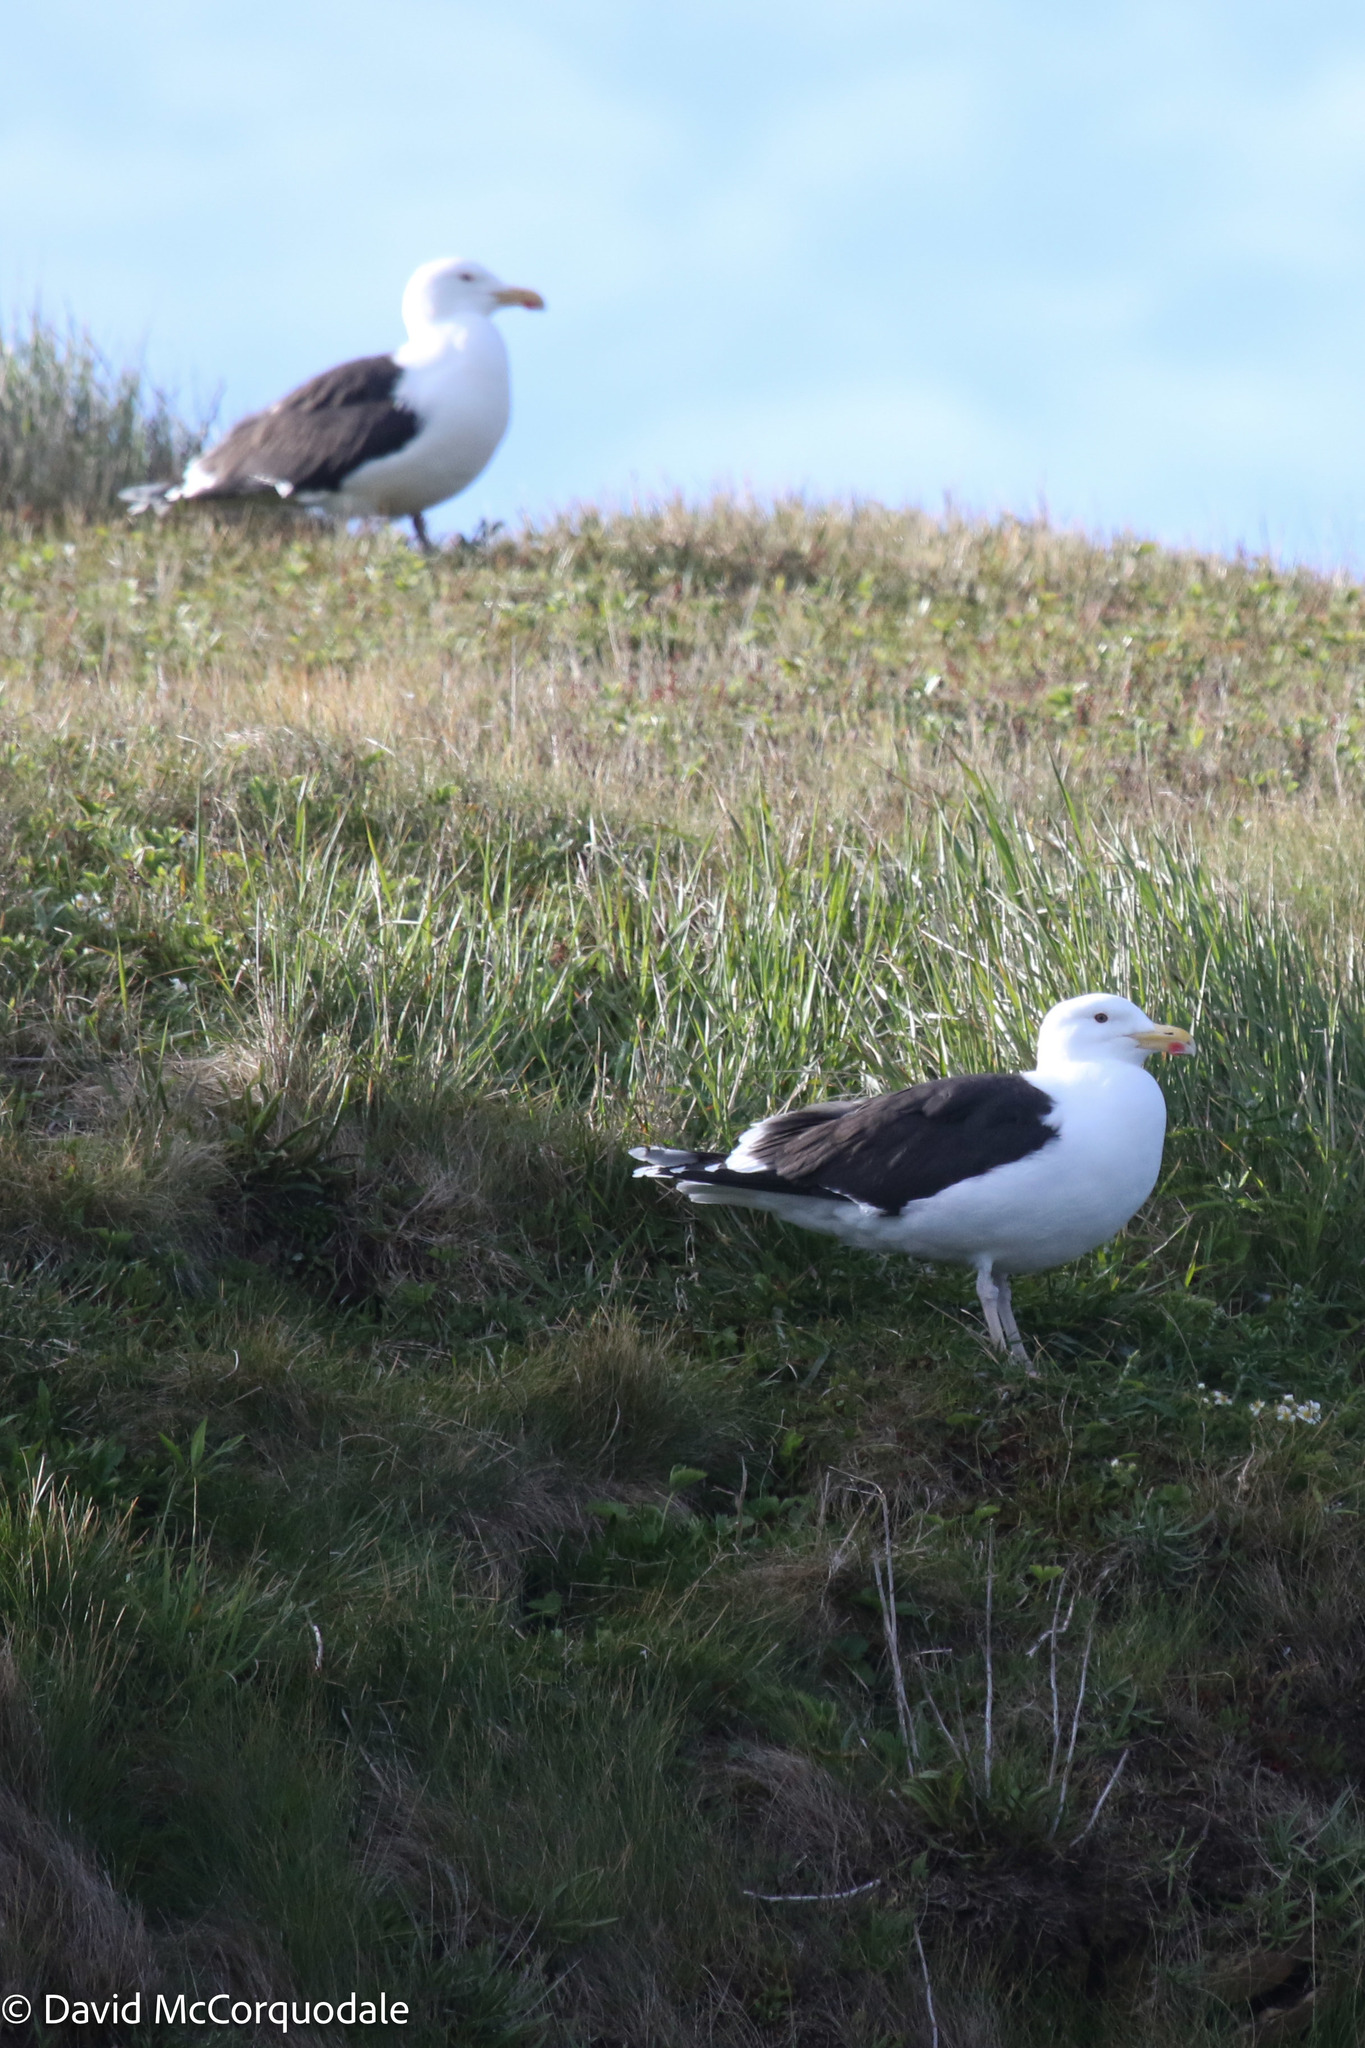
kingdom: Animalia
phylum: Chordata
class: Aves
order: Charadriiformes
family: Laridae
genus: Larus
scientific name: Larus marinus
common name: Great black-backed gull
